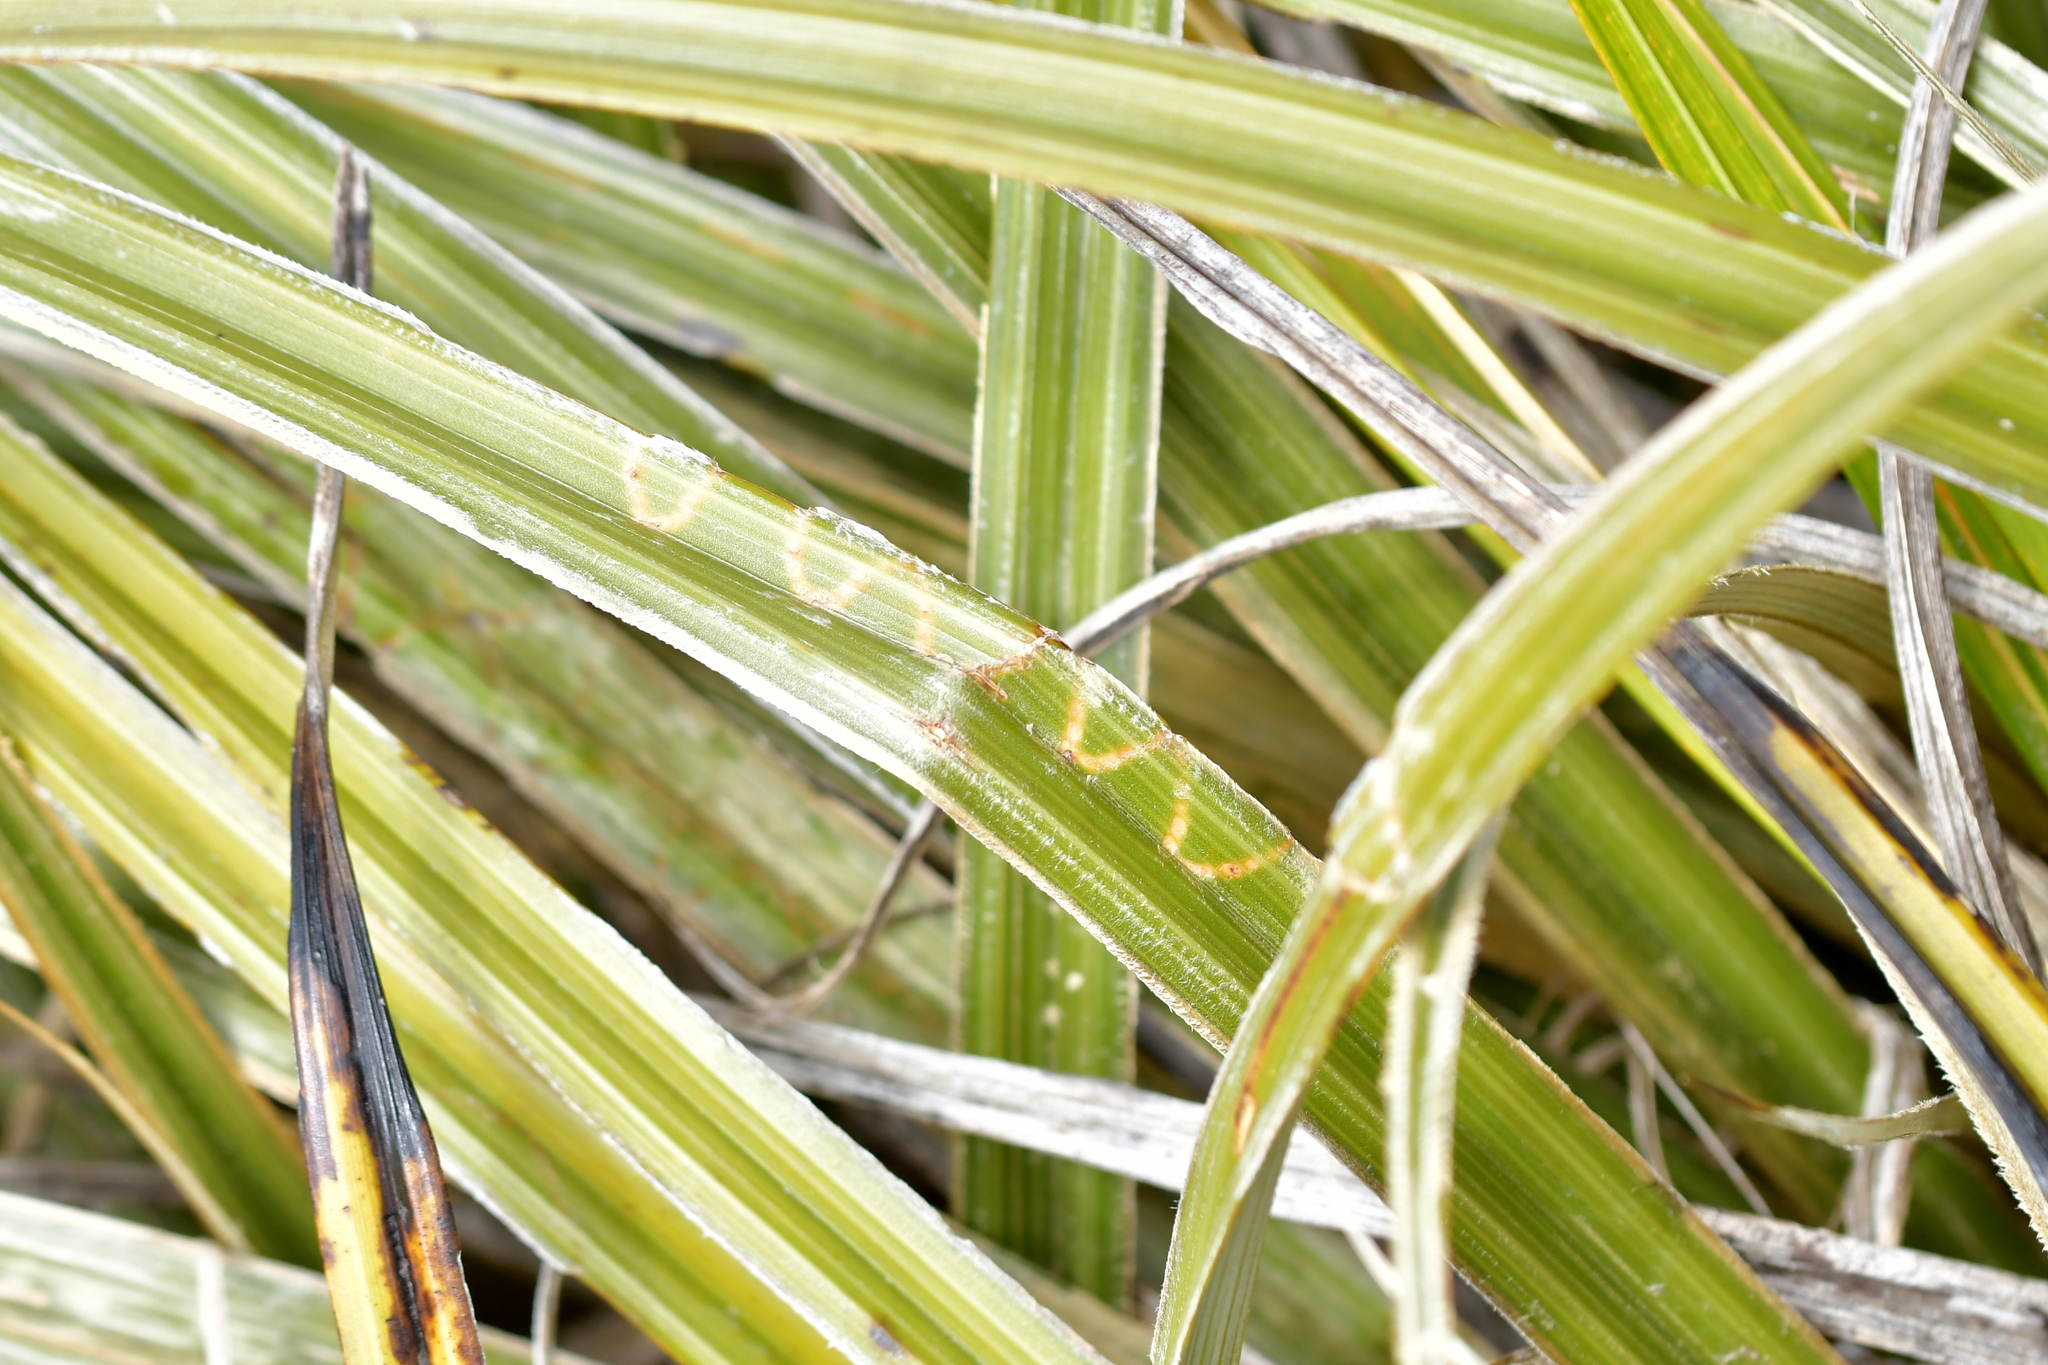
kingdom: Animalia
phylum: Arthropoda
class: Insecta
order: Lepidoptera
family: Plutellidae
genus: Charixena
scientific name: Charixena iridoxa
